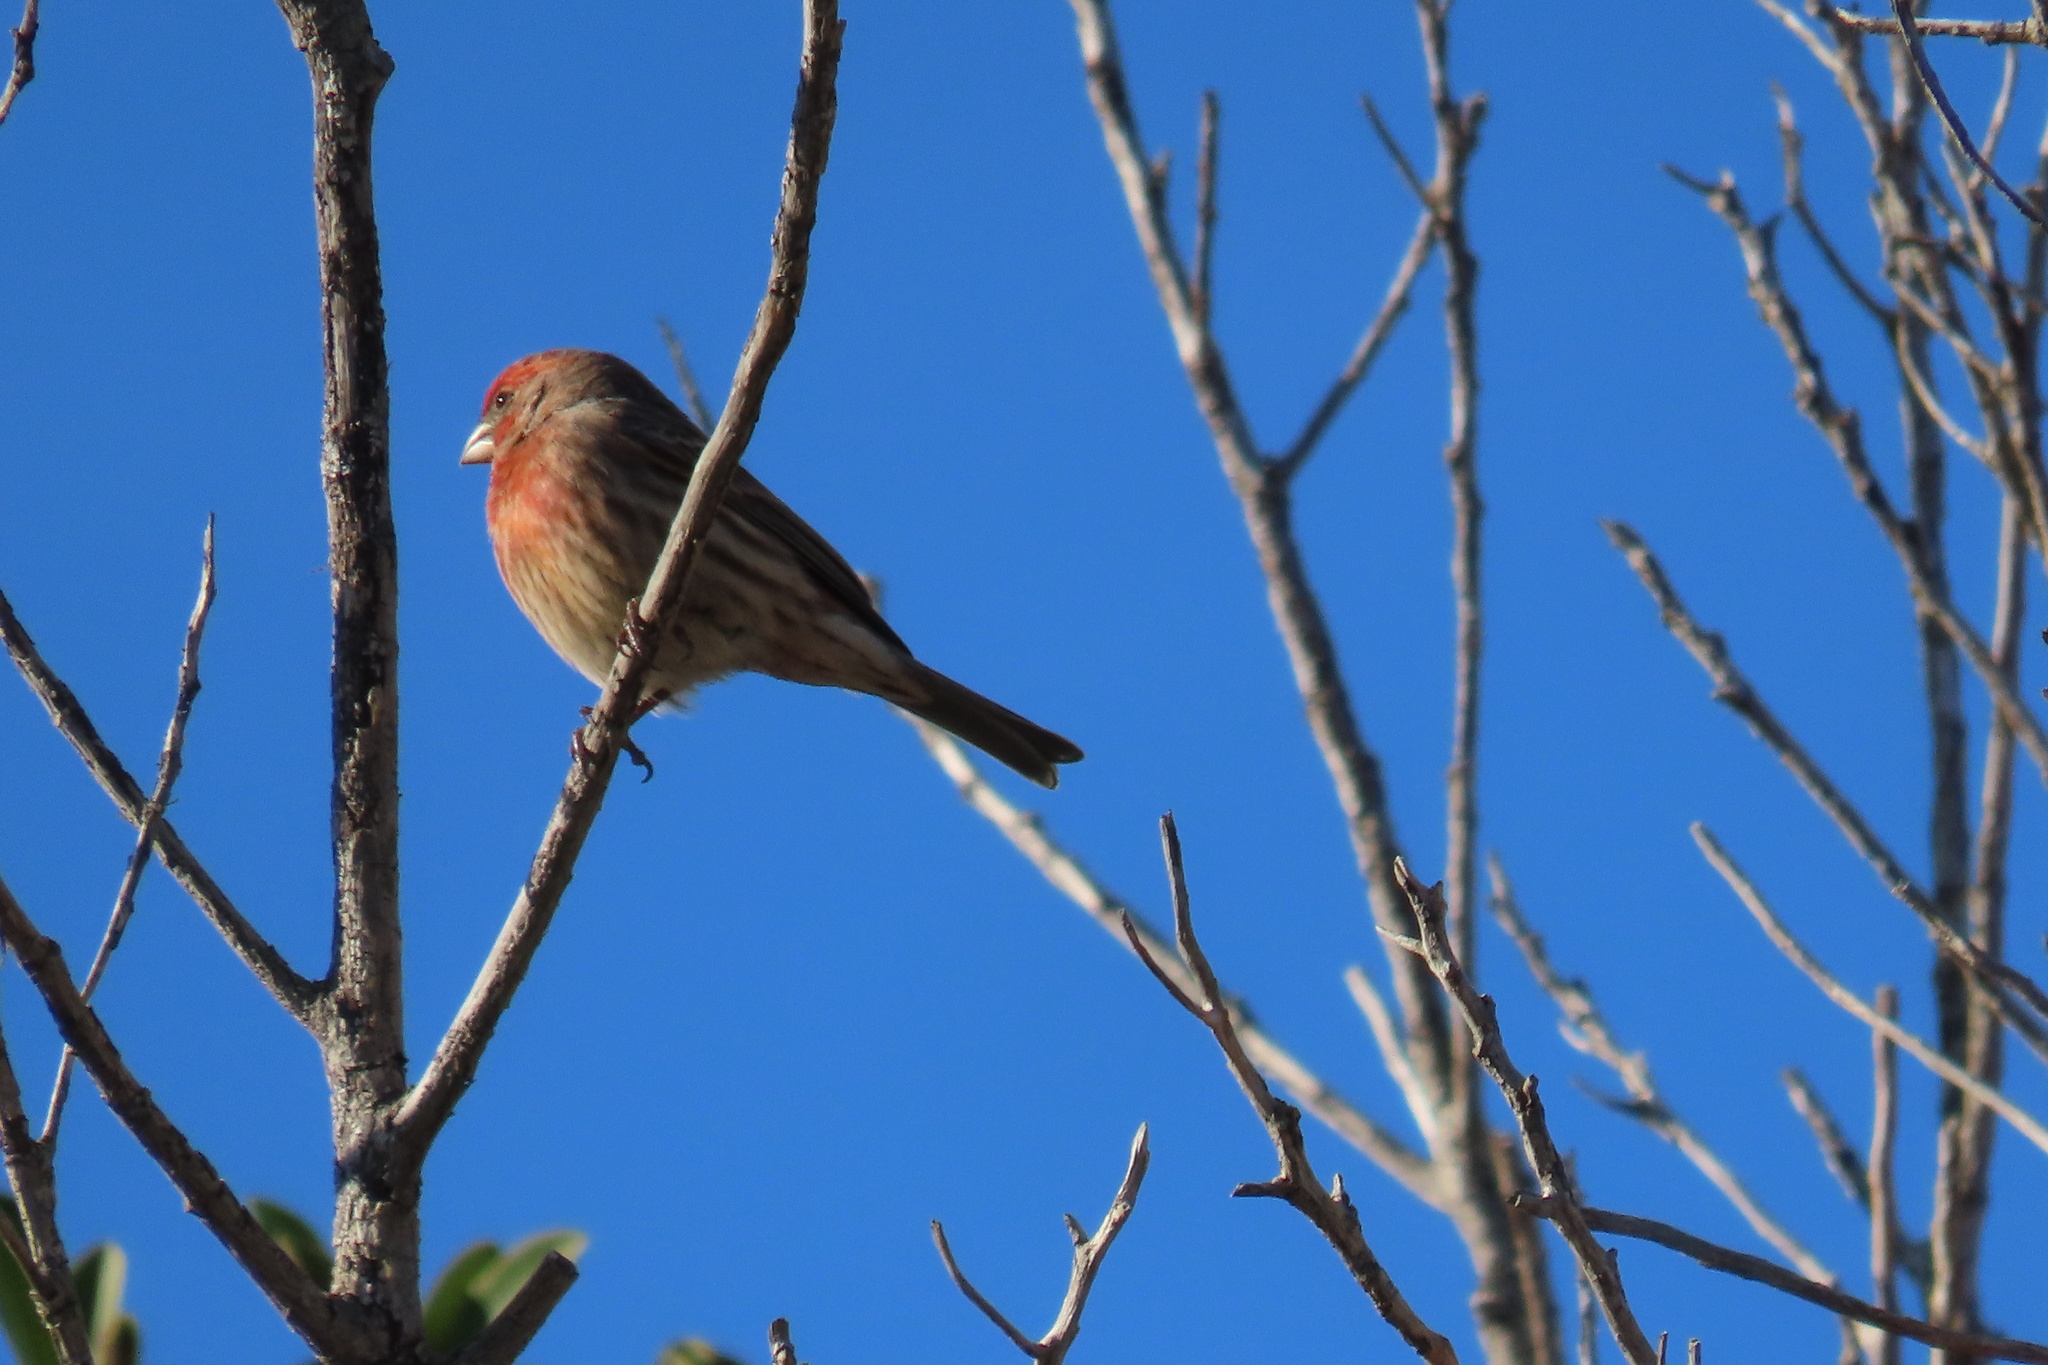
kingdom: Animalia
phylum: Chordata
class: Aves
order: Passeriformes
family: Fringillidae
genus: Haemorhous
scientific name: Haemorhous mexicanus
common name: House finch
